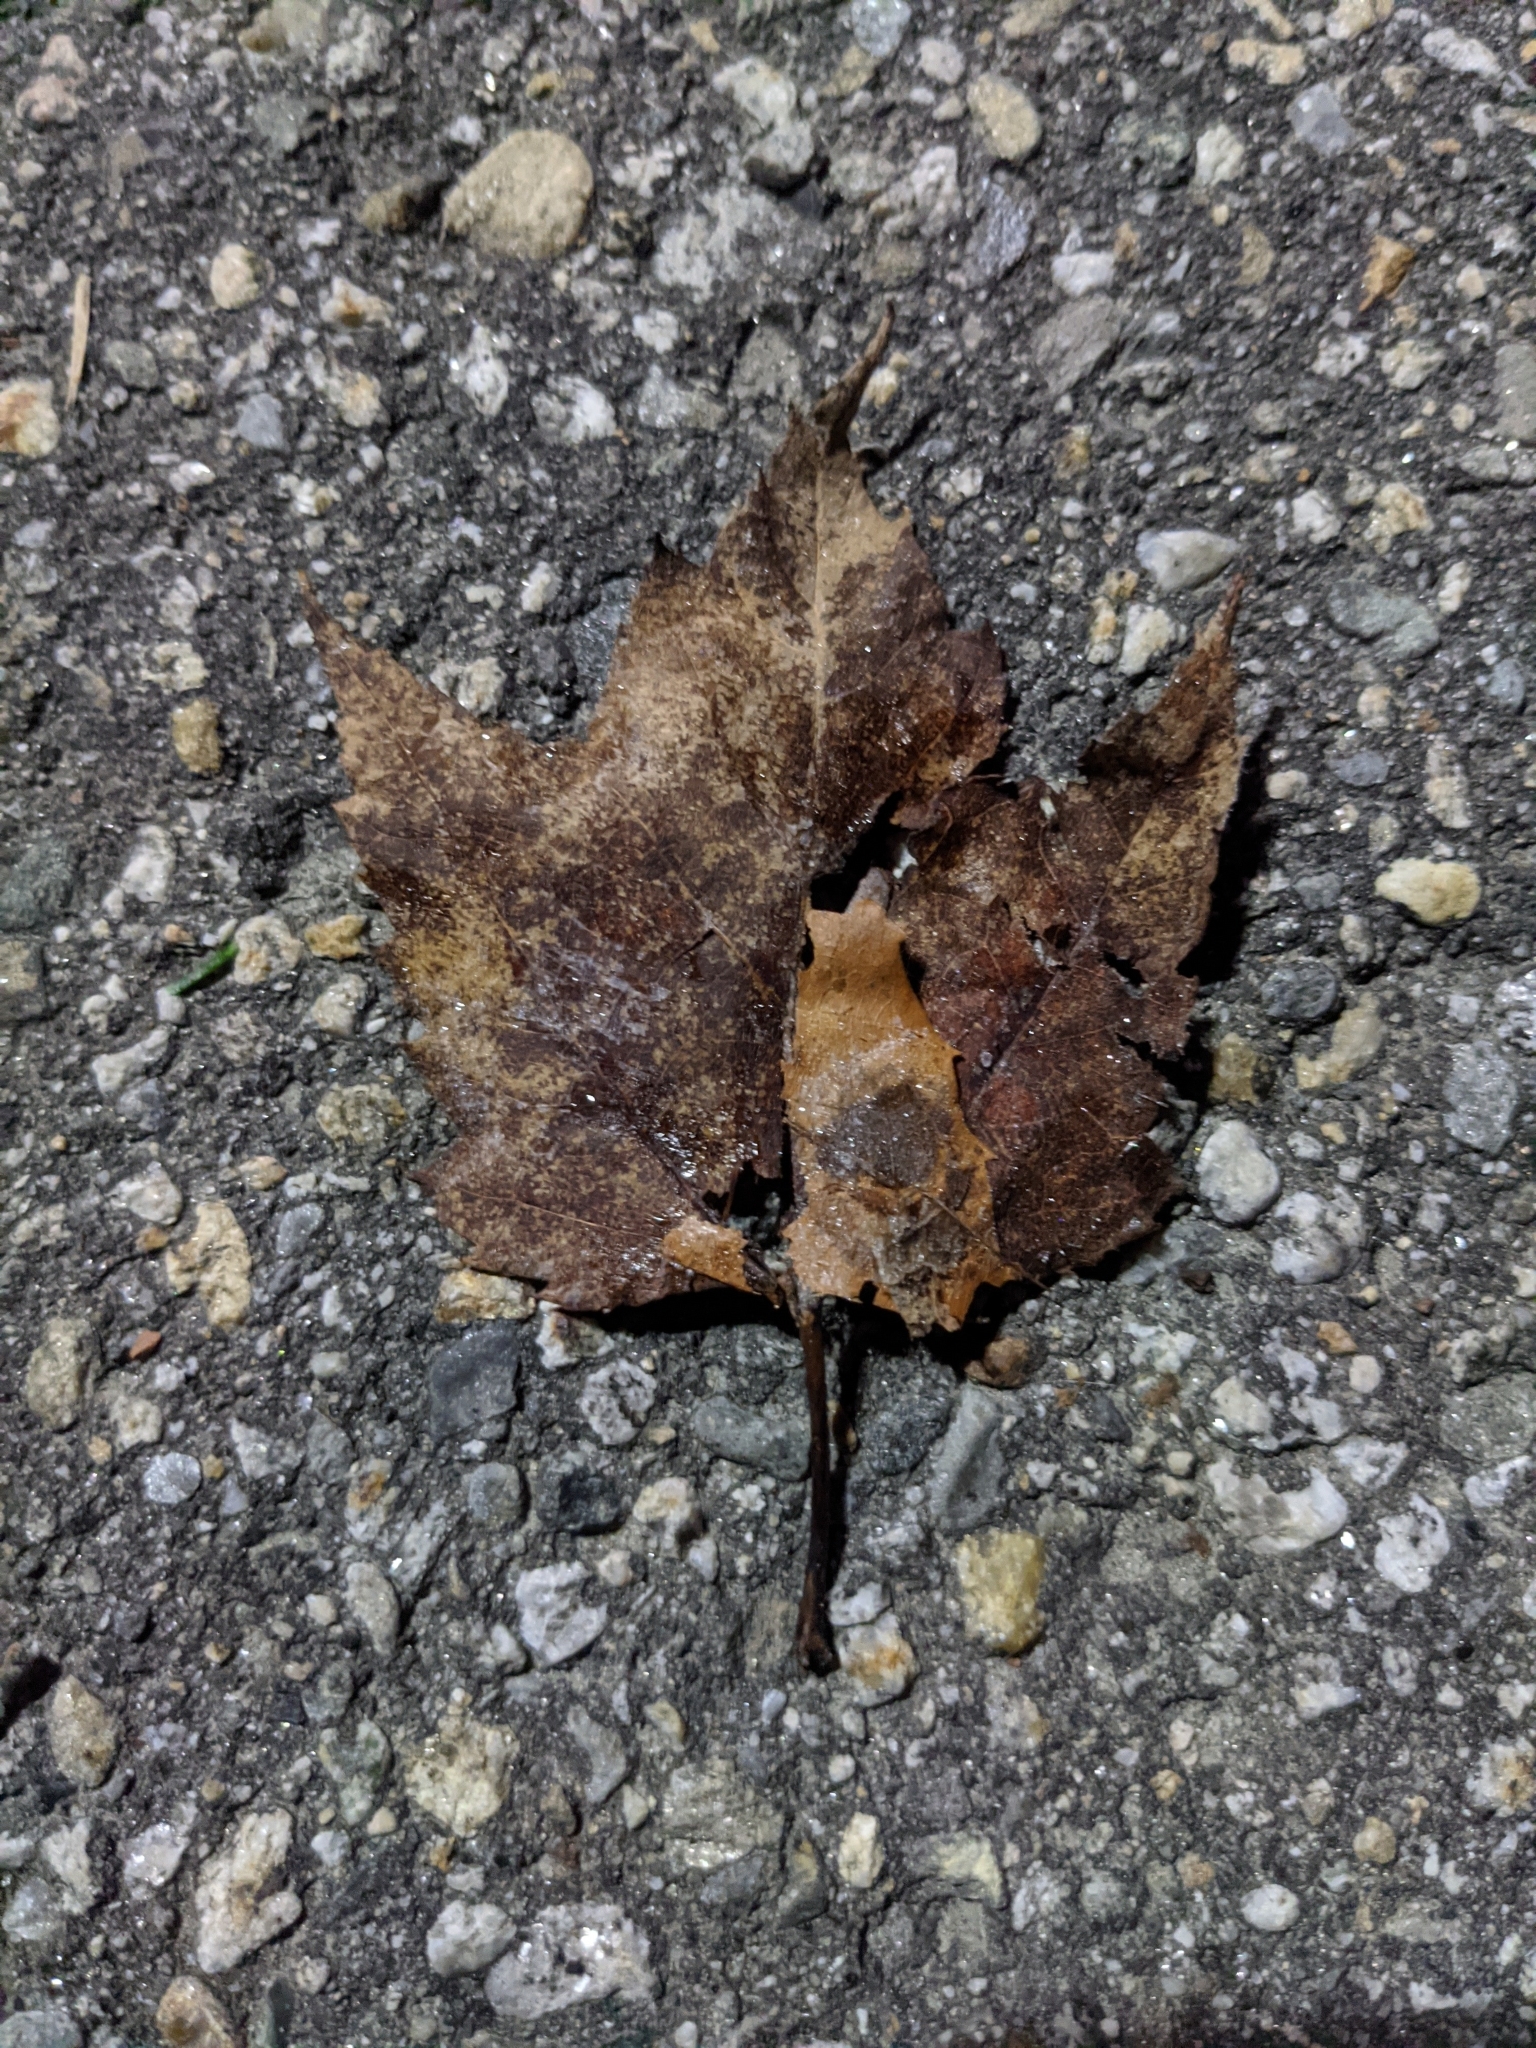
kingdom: Plantae
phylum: Tracheophyta
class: Magnoliopsida
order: Sapindales
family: Sapindaceae
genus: Acer
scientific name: Acer rubrum
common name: Red maple
